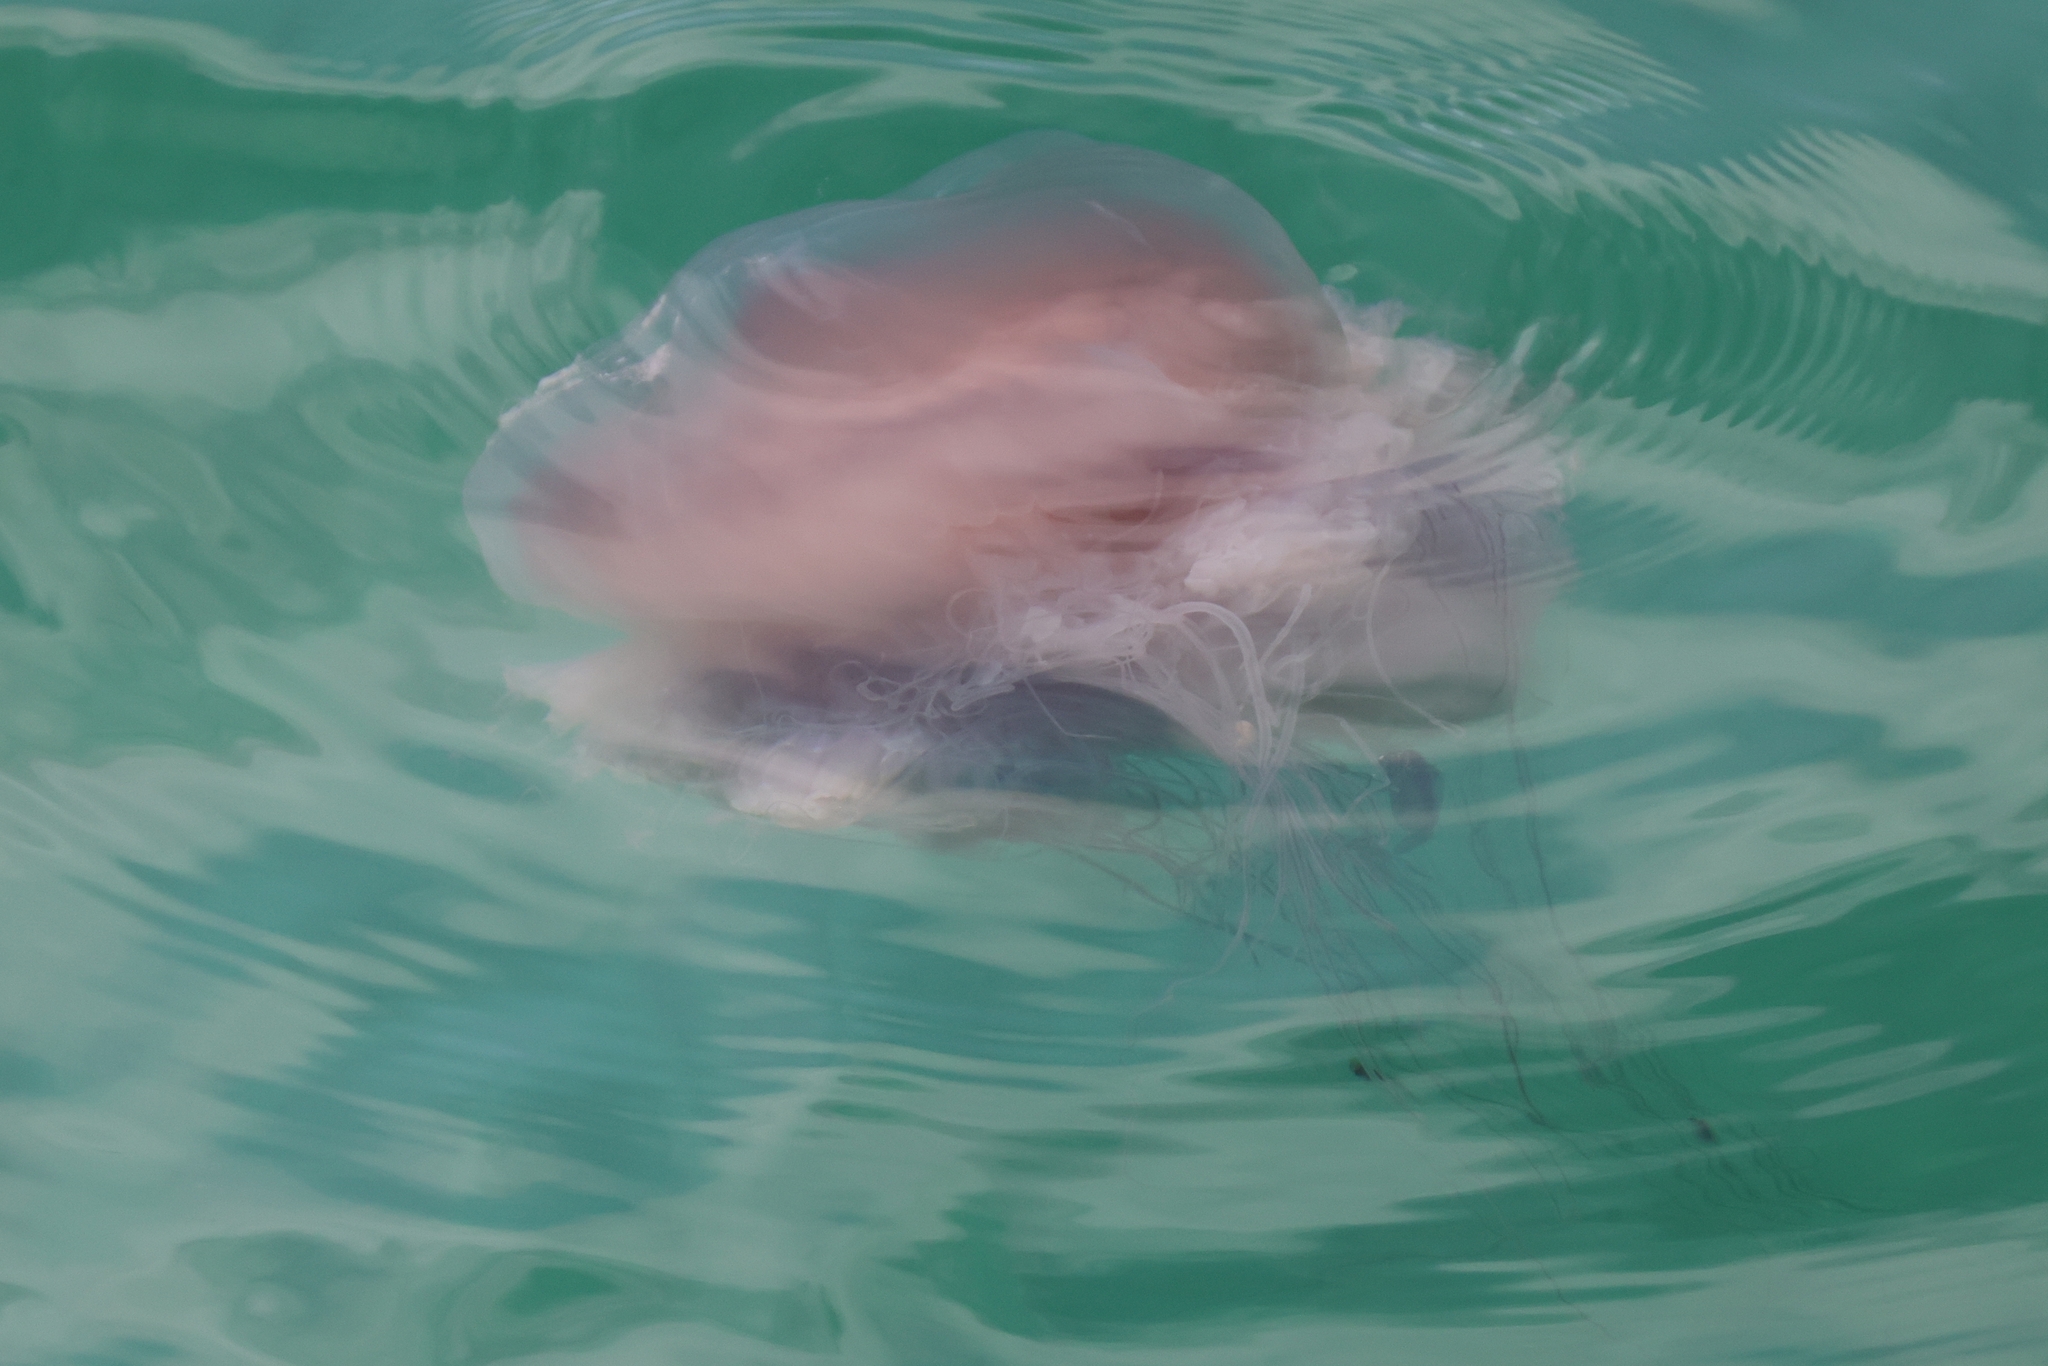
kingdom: Animalia
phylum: Cnidaria
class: Scyphozoa
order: Semaeostomeae
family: Drymonematidae
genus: Drymonema
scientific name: Drymonema larsoni
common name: Larson's jellyfish
